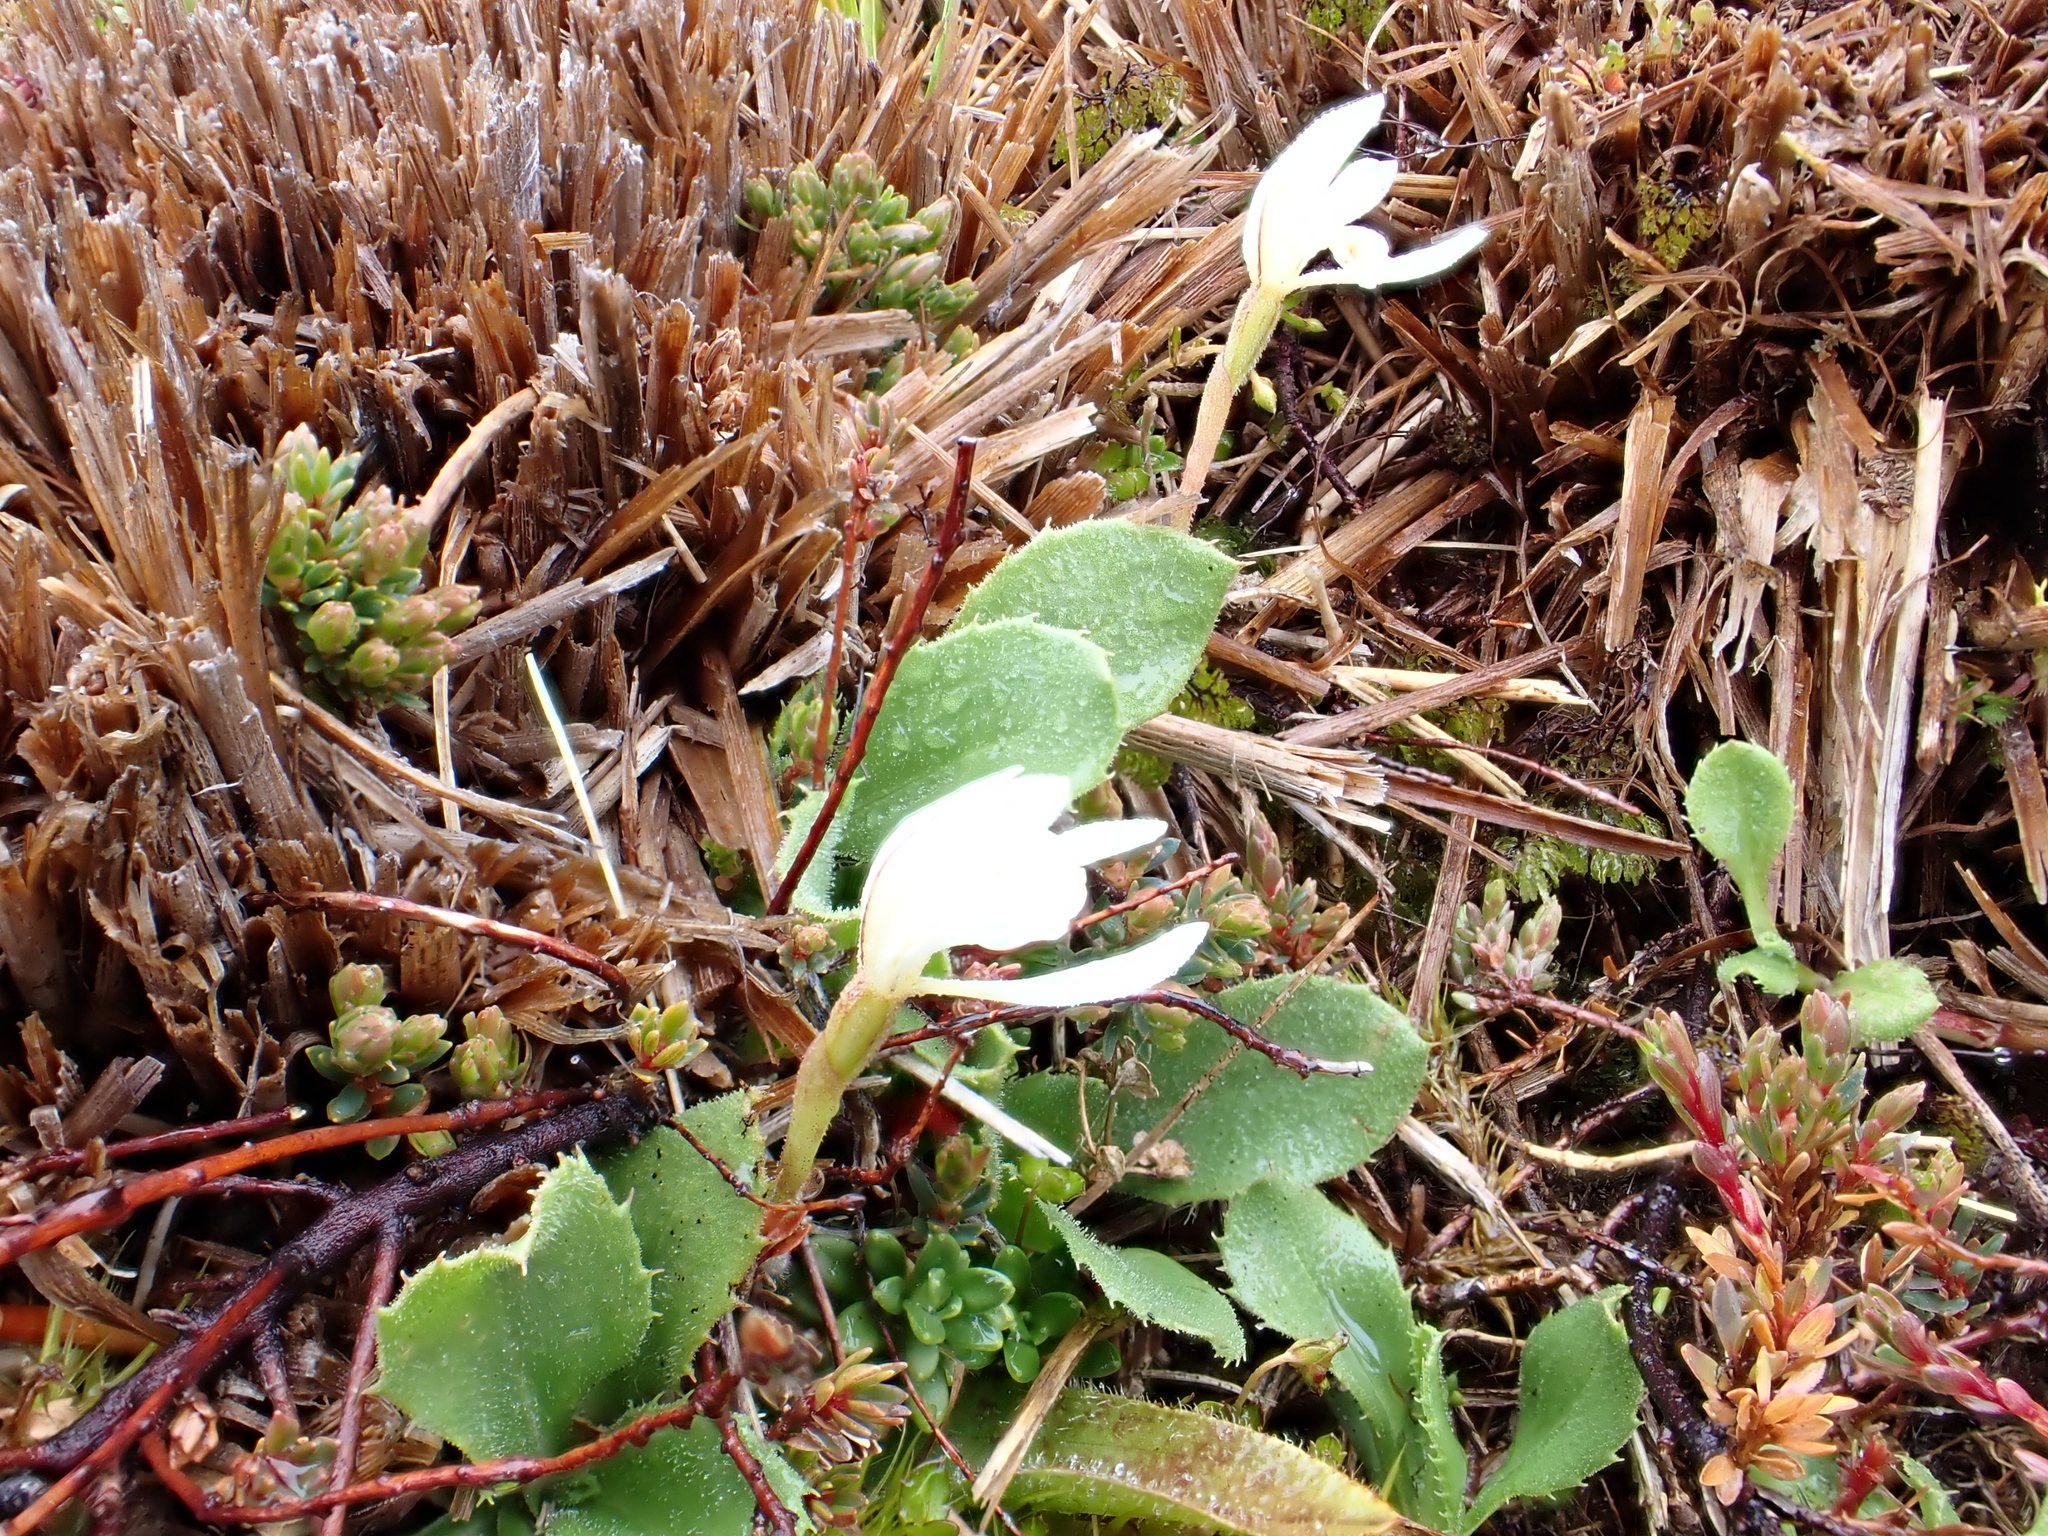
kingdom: Plantae
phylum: Tracheophyta
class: Liliopsida
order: Asparagales
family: Orchidaceae
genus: Aporostylis
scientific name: Aporostylis bifolia
